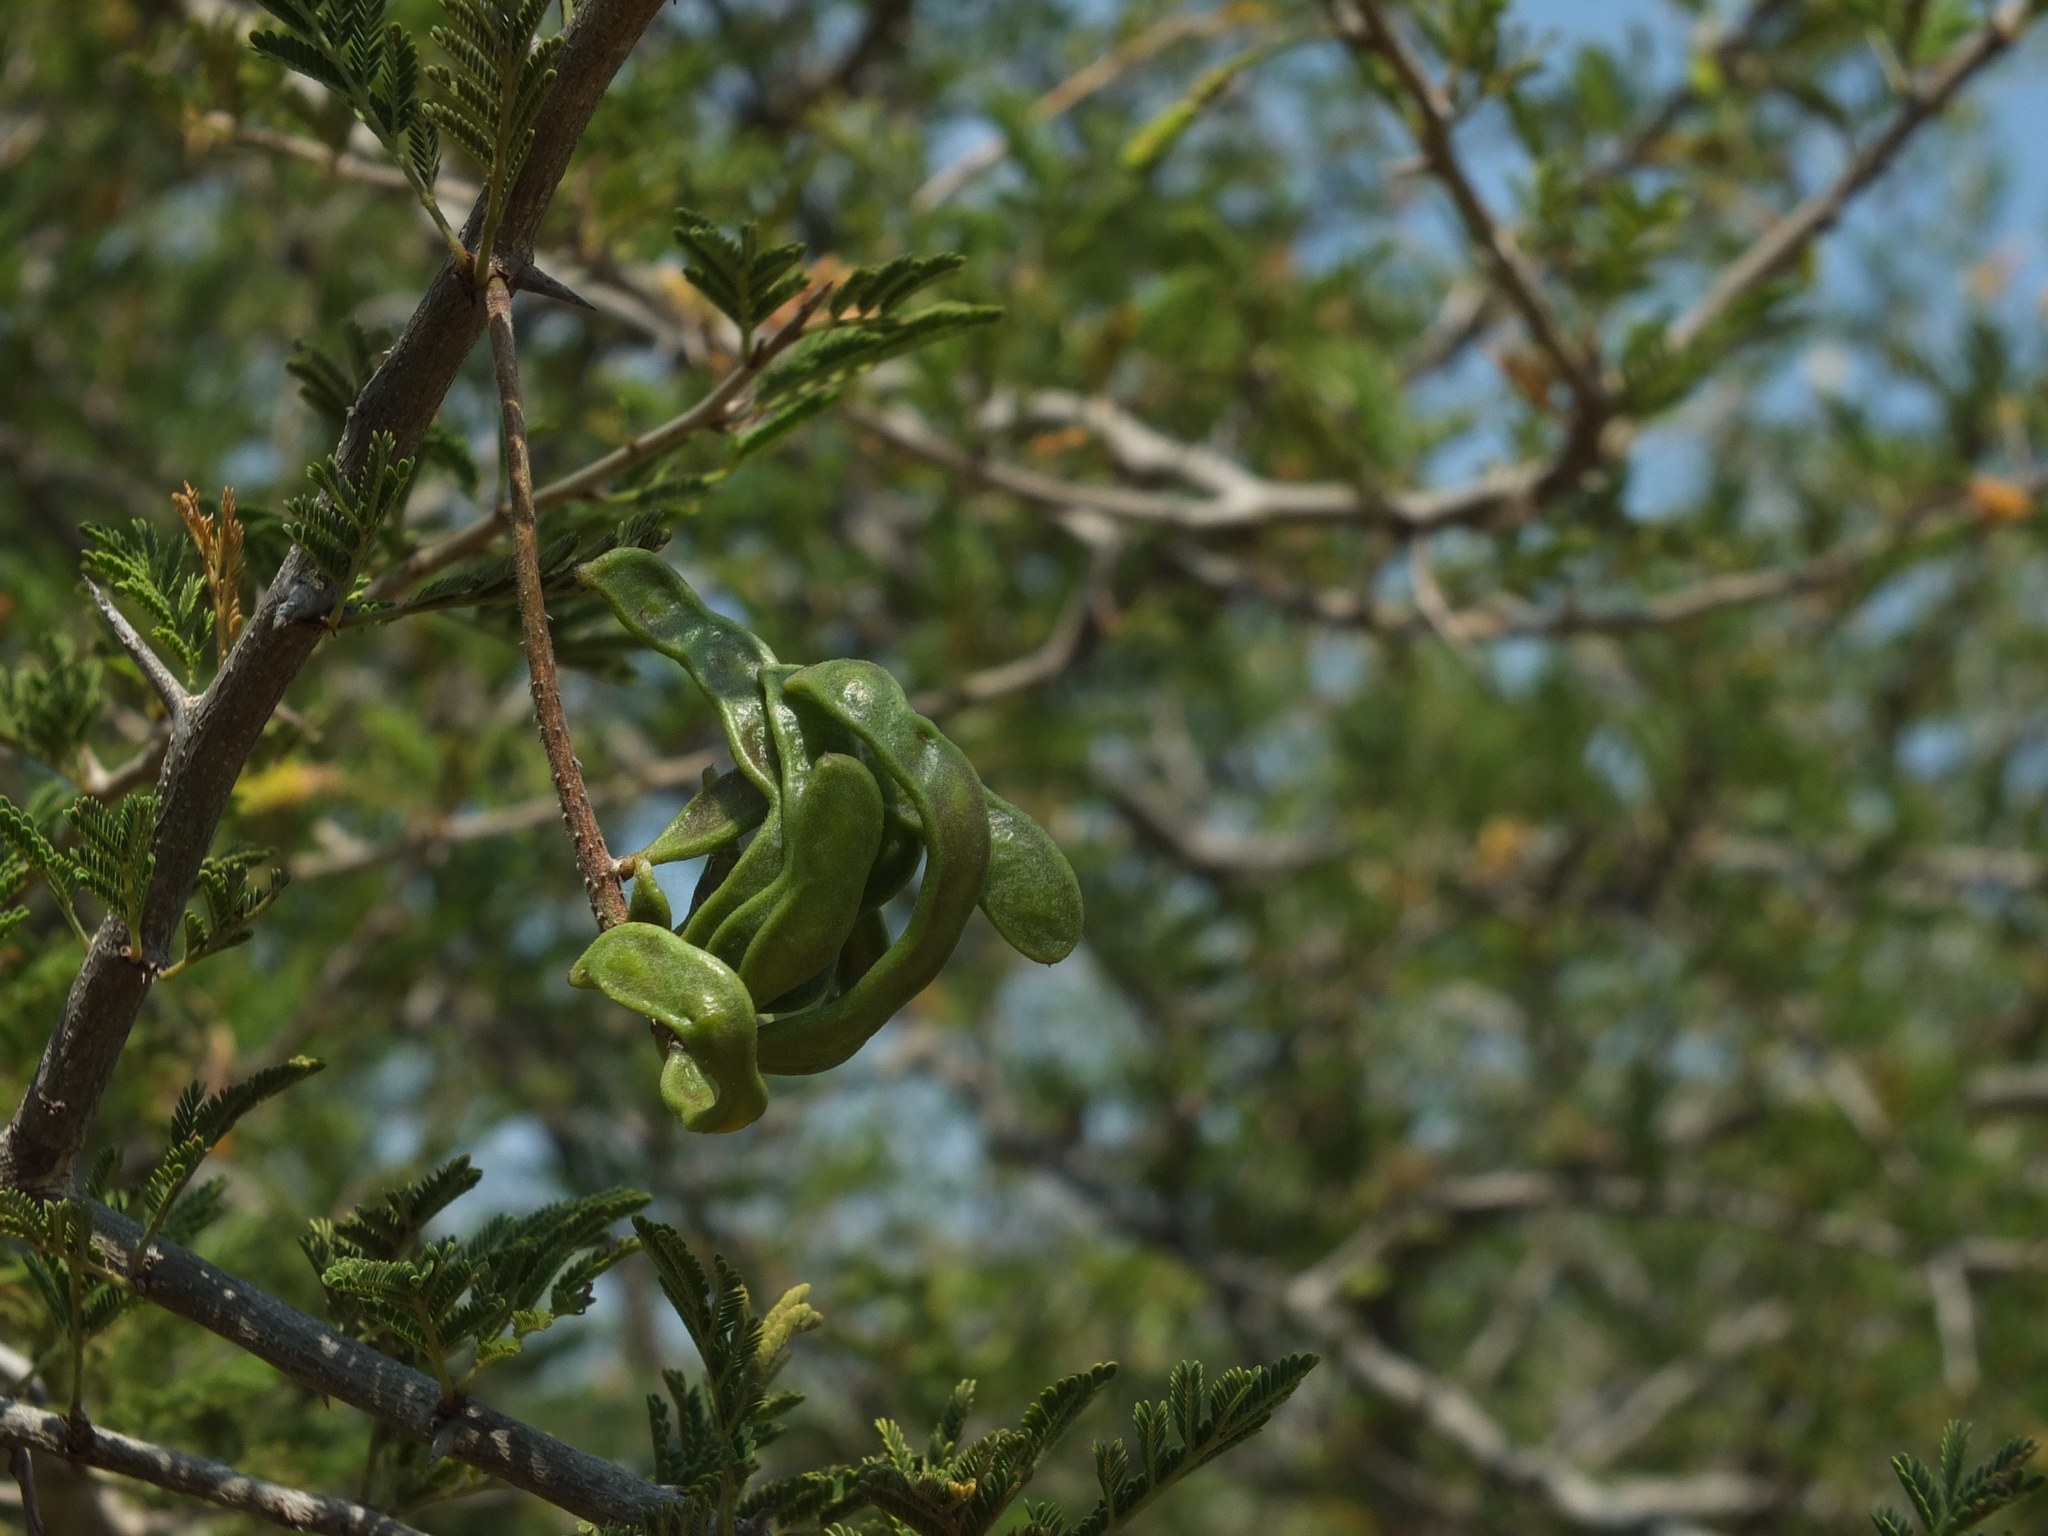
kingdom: Plantae
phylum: Tracheophyta
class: Magnoliopsida
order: Fabales
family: Fabaceae
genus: Dichrostachys
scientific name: Dichrostachys cinerea
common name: Sicklebush
